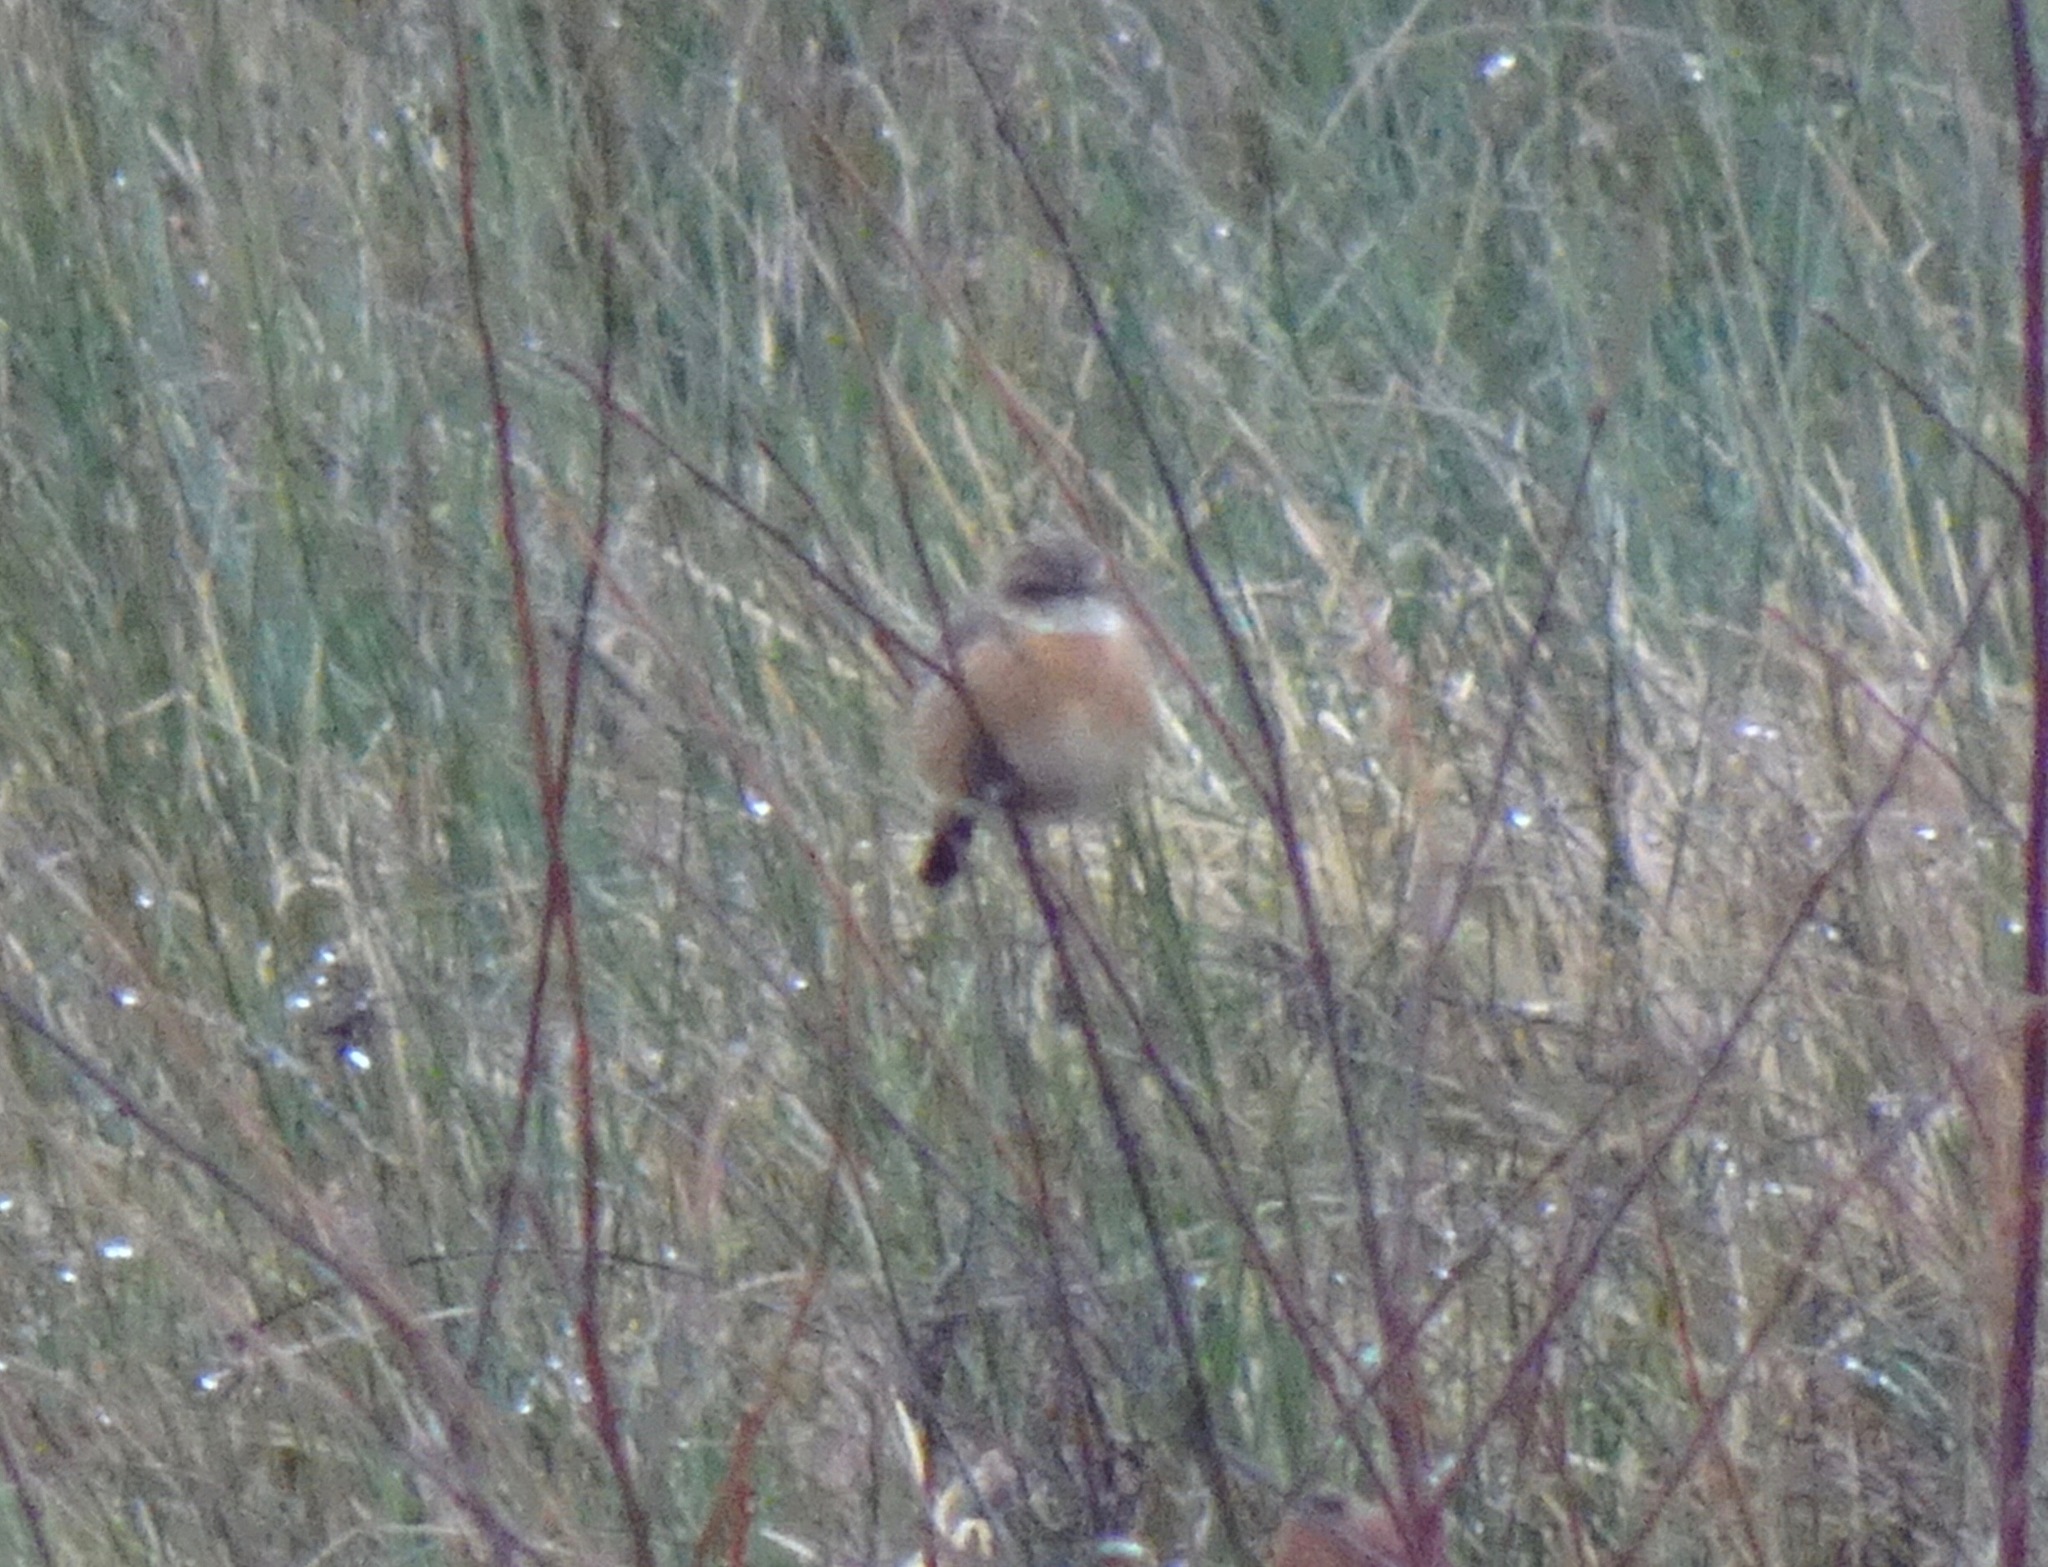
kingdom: Animalia
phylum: Chordata
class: Aves
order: Passeriformes
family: Muscicapidae
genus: Saxicola
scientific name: Saxicola rubicola
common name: European stonechat
